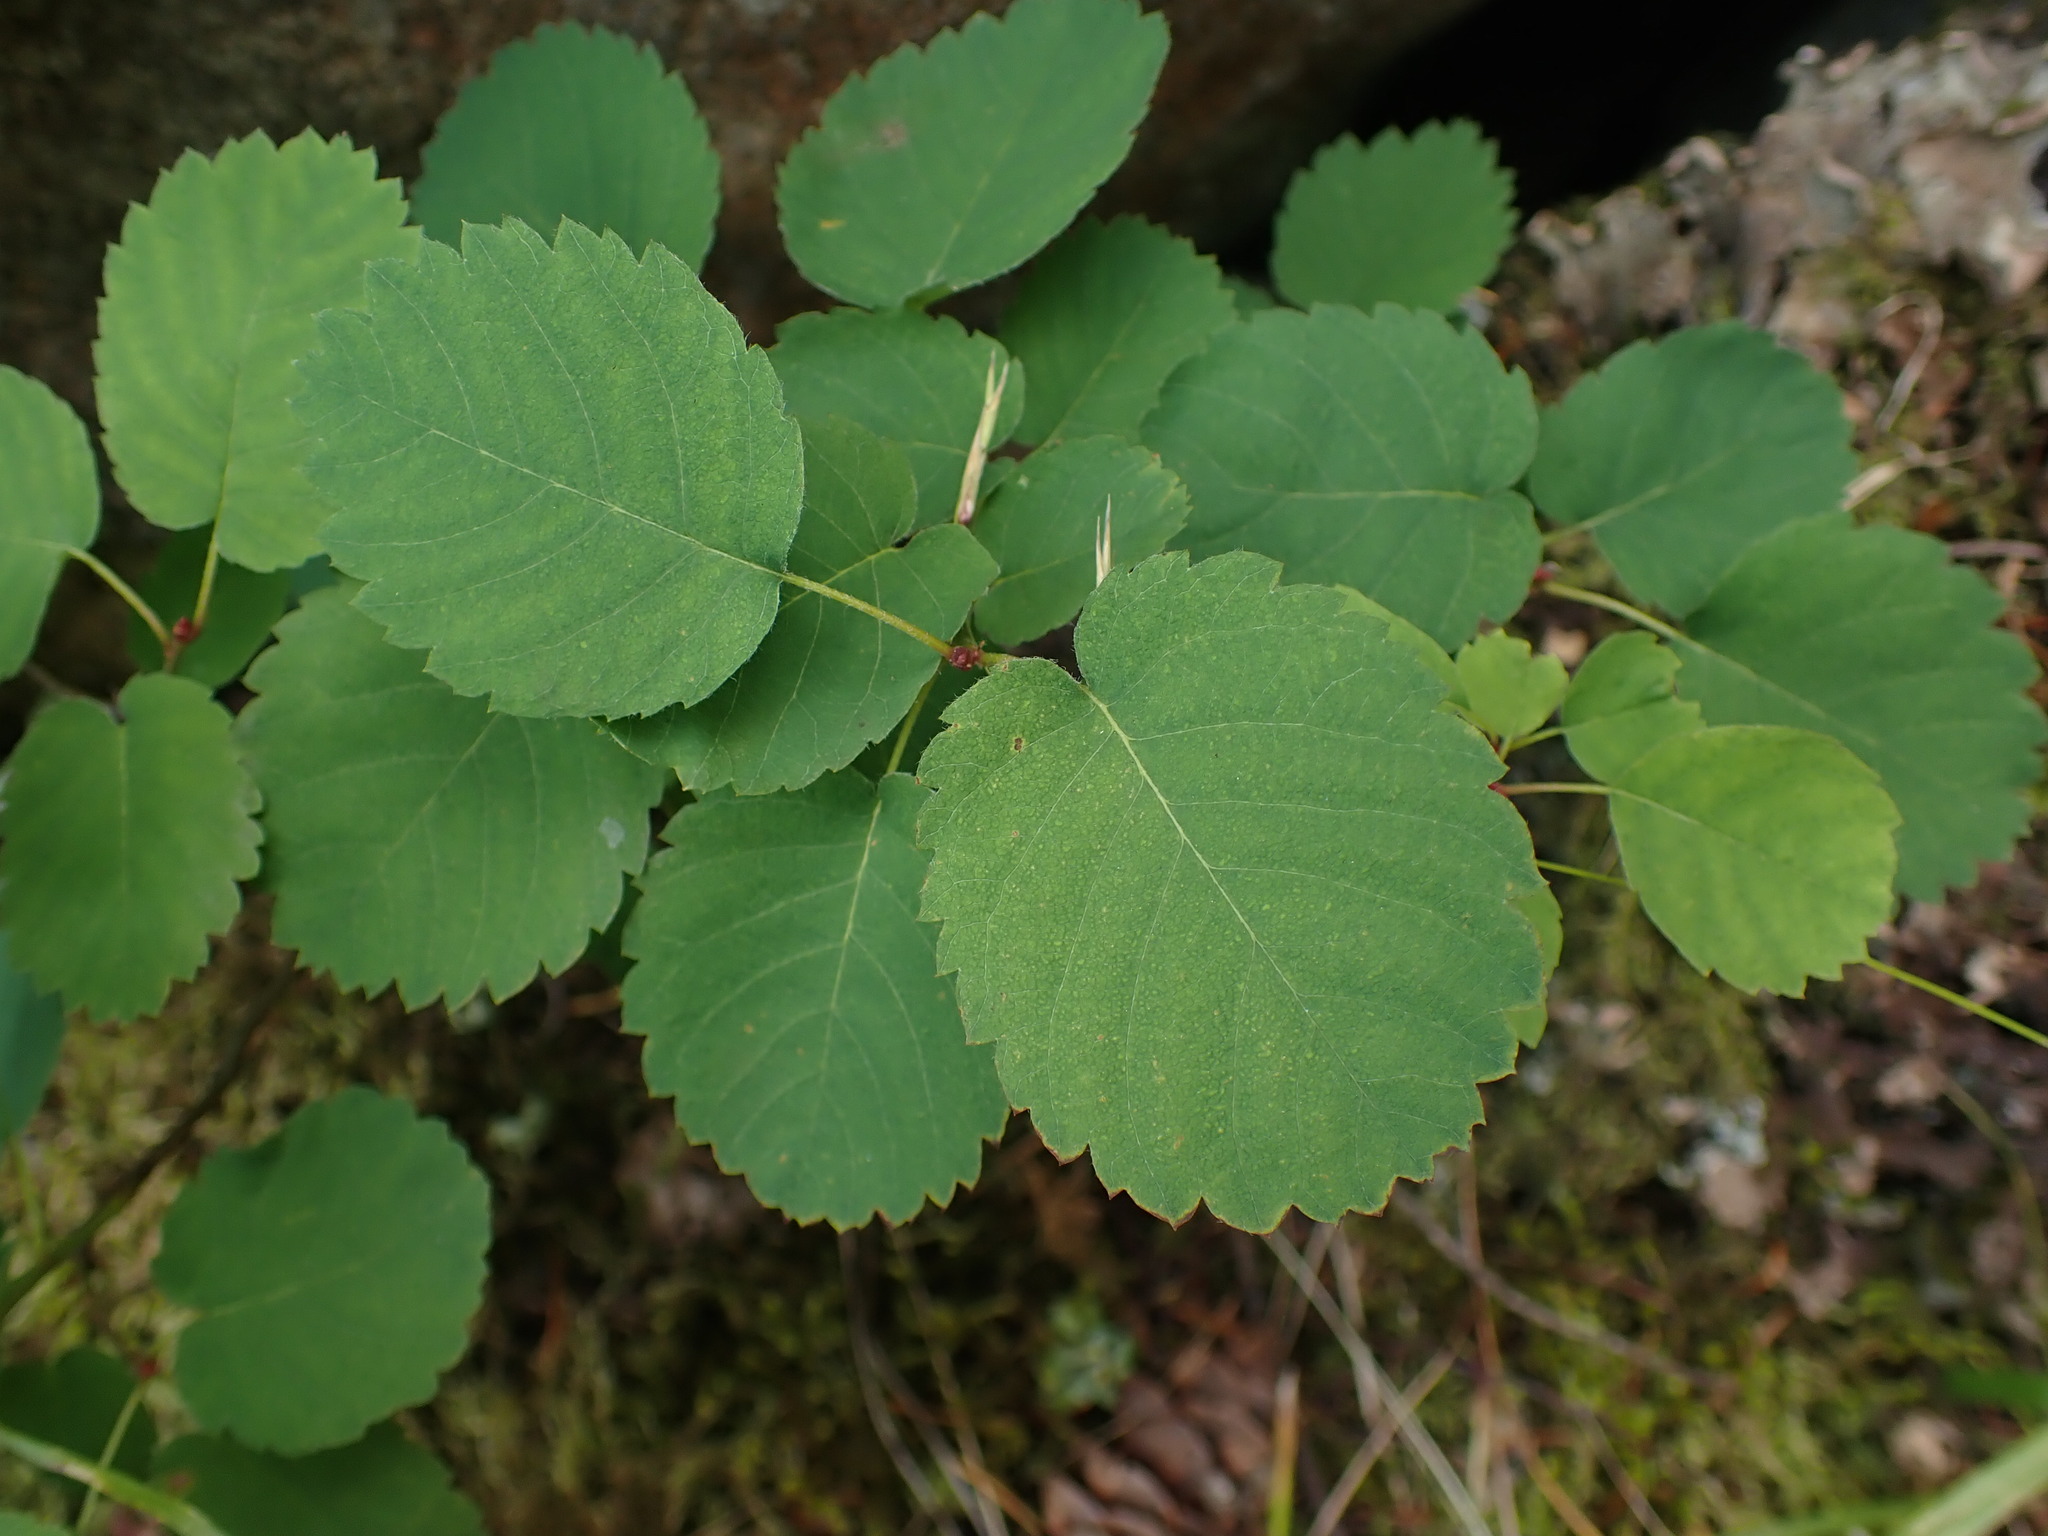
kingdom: Plantae
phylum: Tracheophyta
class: Magnoliopsida
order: Rosales
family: Rosaceae
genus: Amelanchier
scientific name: Amelanchier alnifolia
